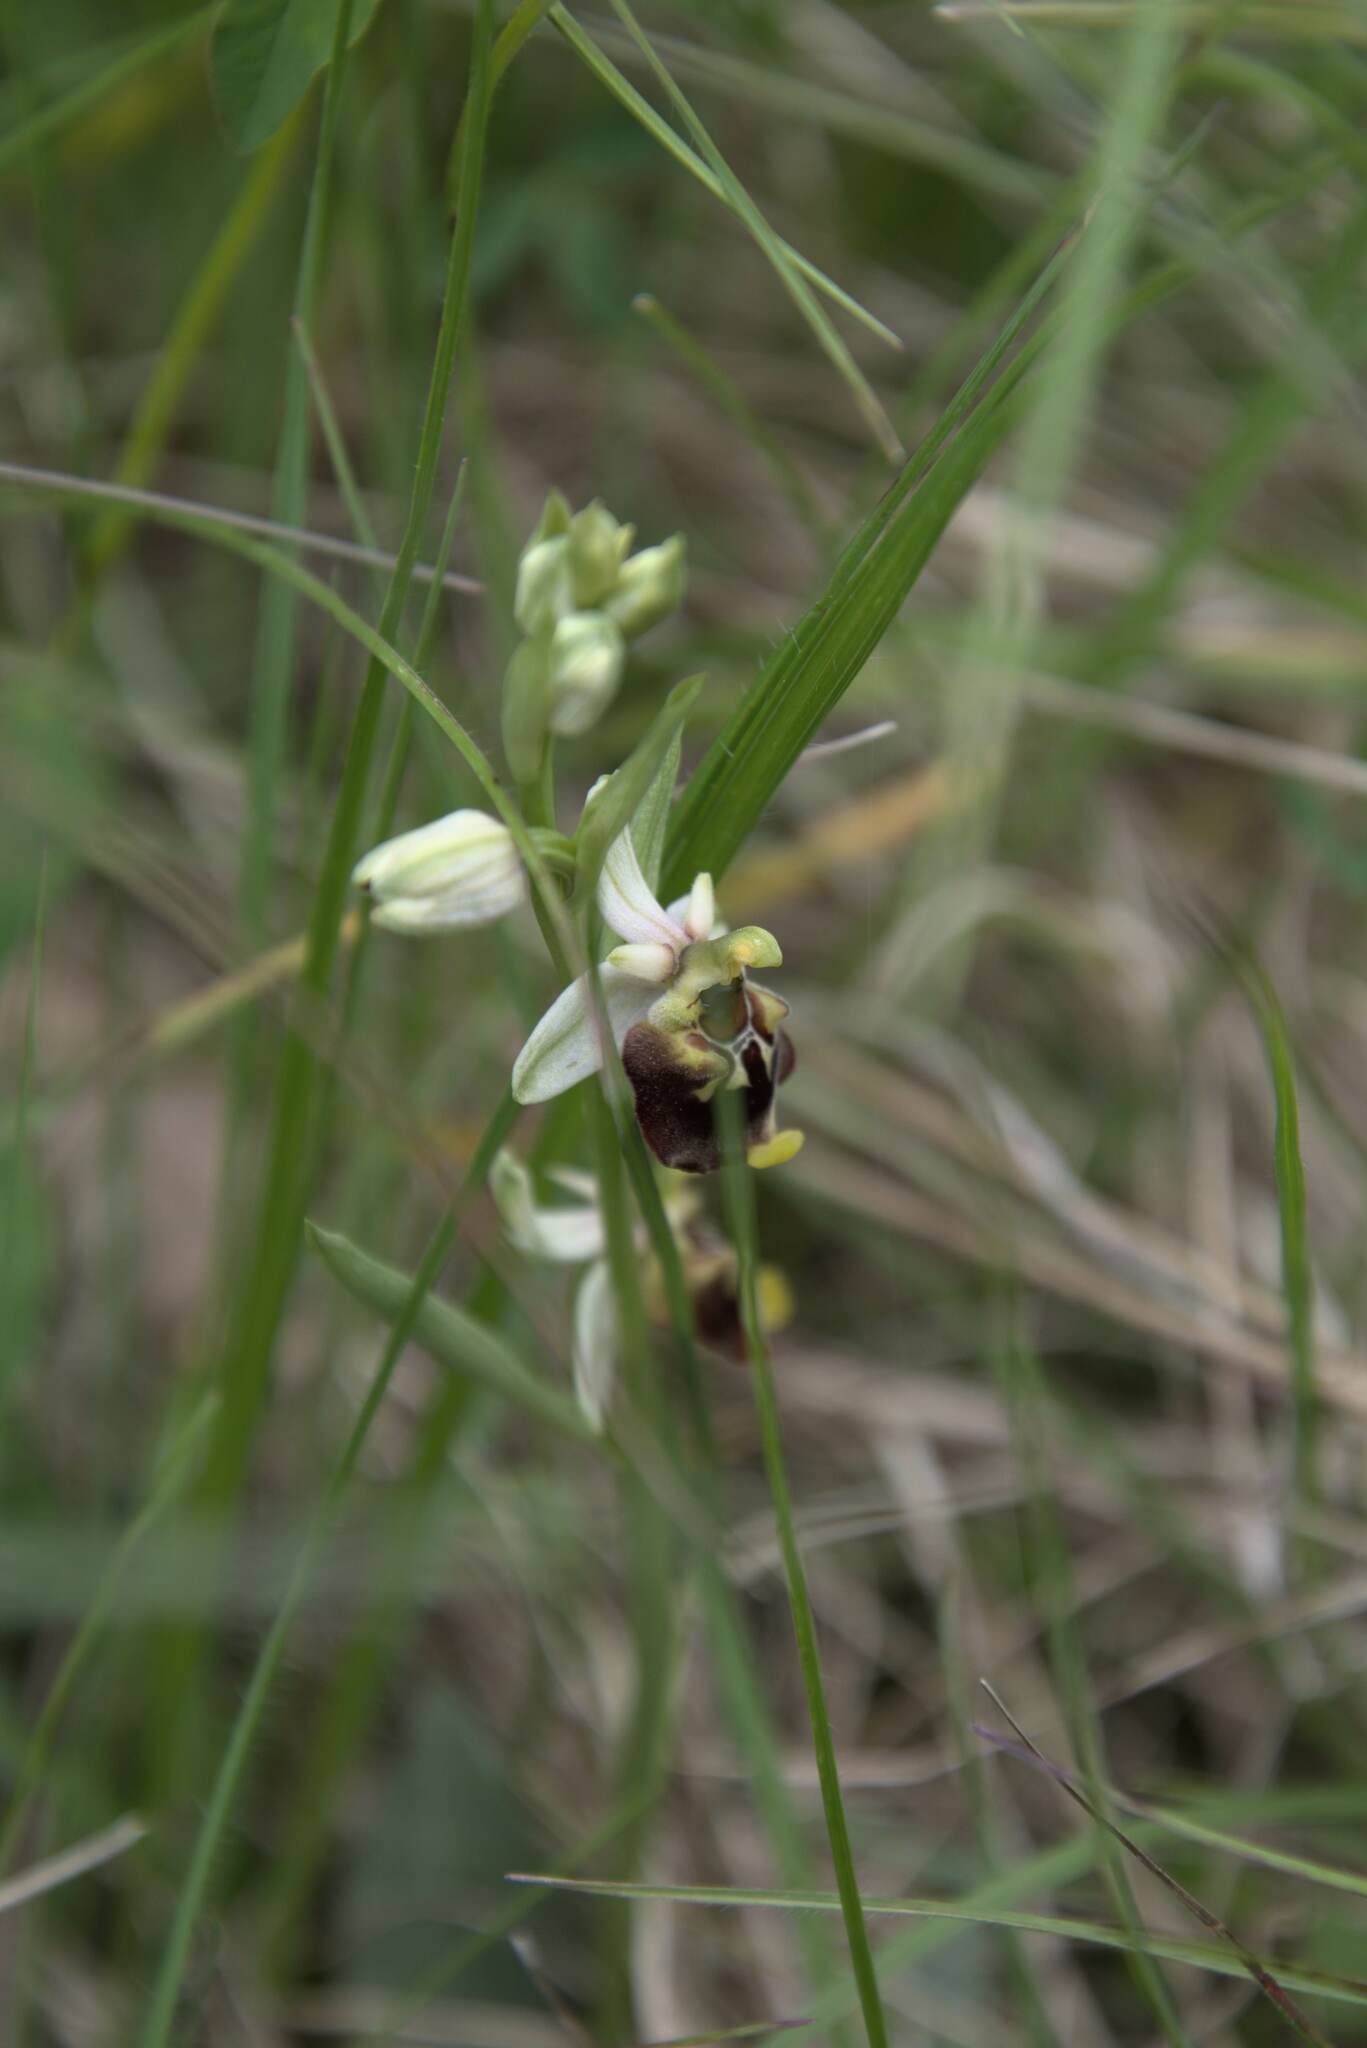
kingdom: Plantae
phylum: Tracheophyta
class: Liliopsida
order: Asparagales
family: Orchidaceae
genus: Ophrys
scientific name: Ophrys holosericea
